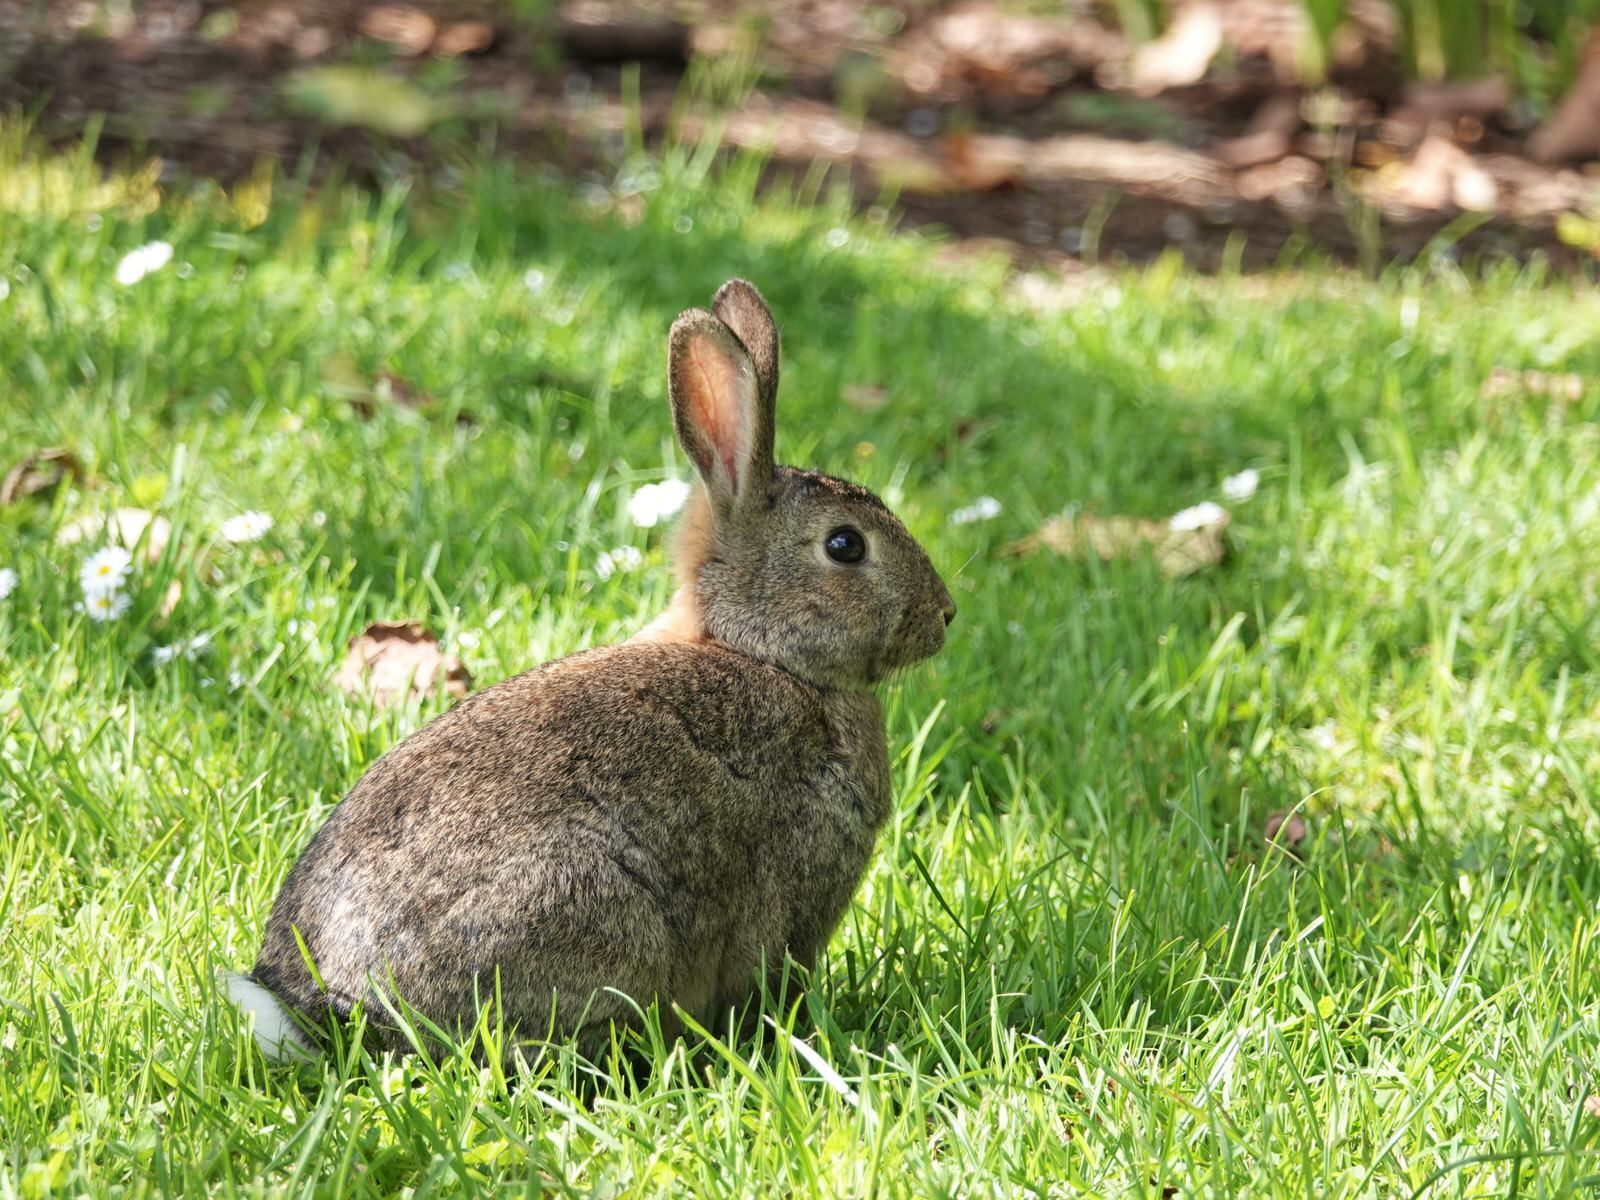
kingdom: Animalia
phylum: Chordata
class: Mammalia
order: Lagomorpha
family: Leporidae
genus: Oryctolagus
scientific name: Oryctolagus cuniculus
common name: European rabbit
